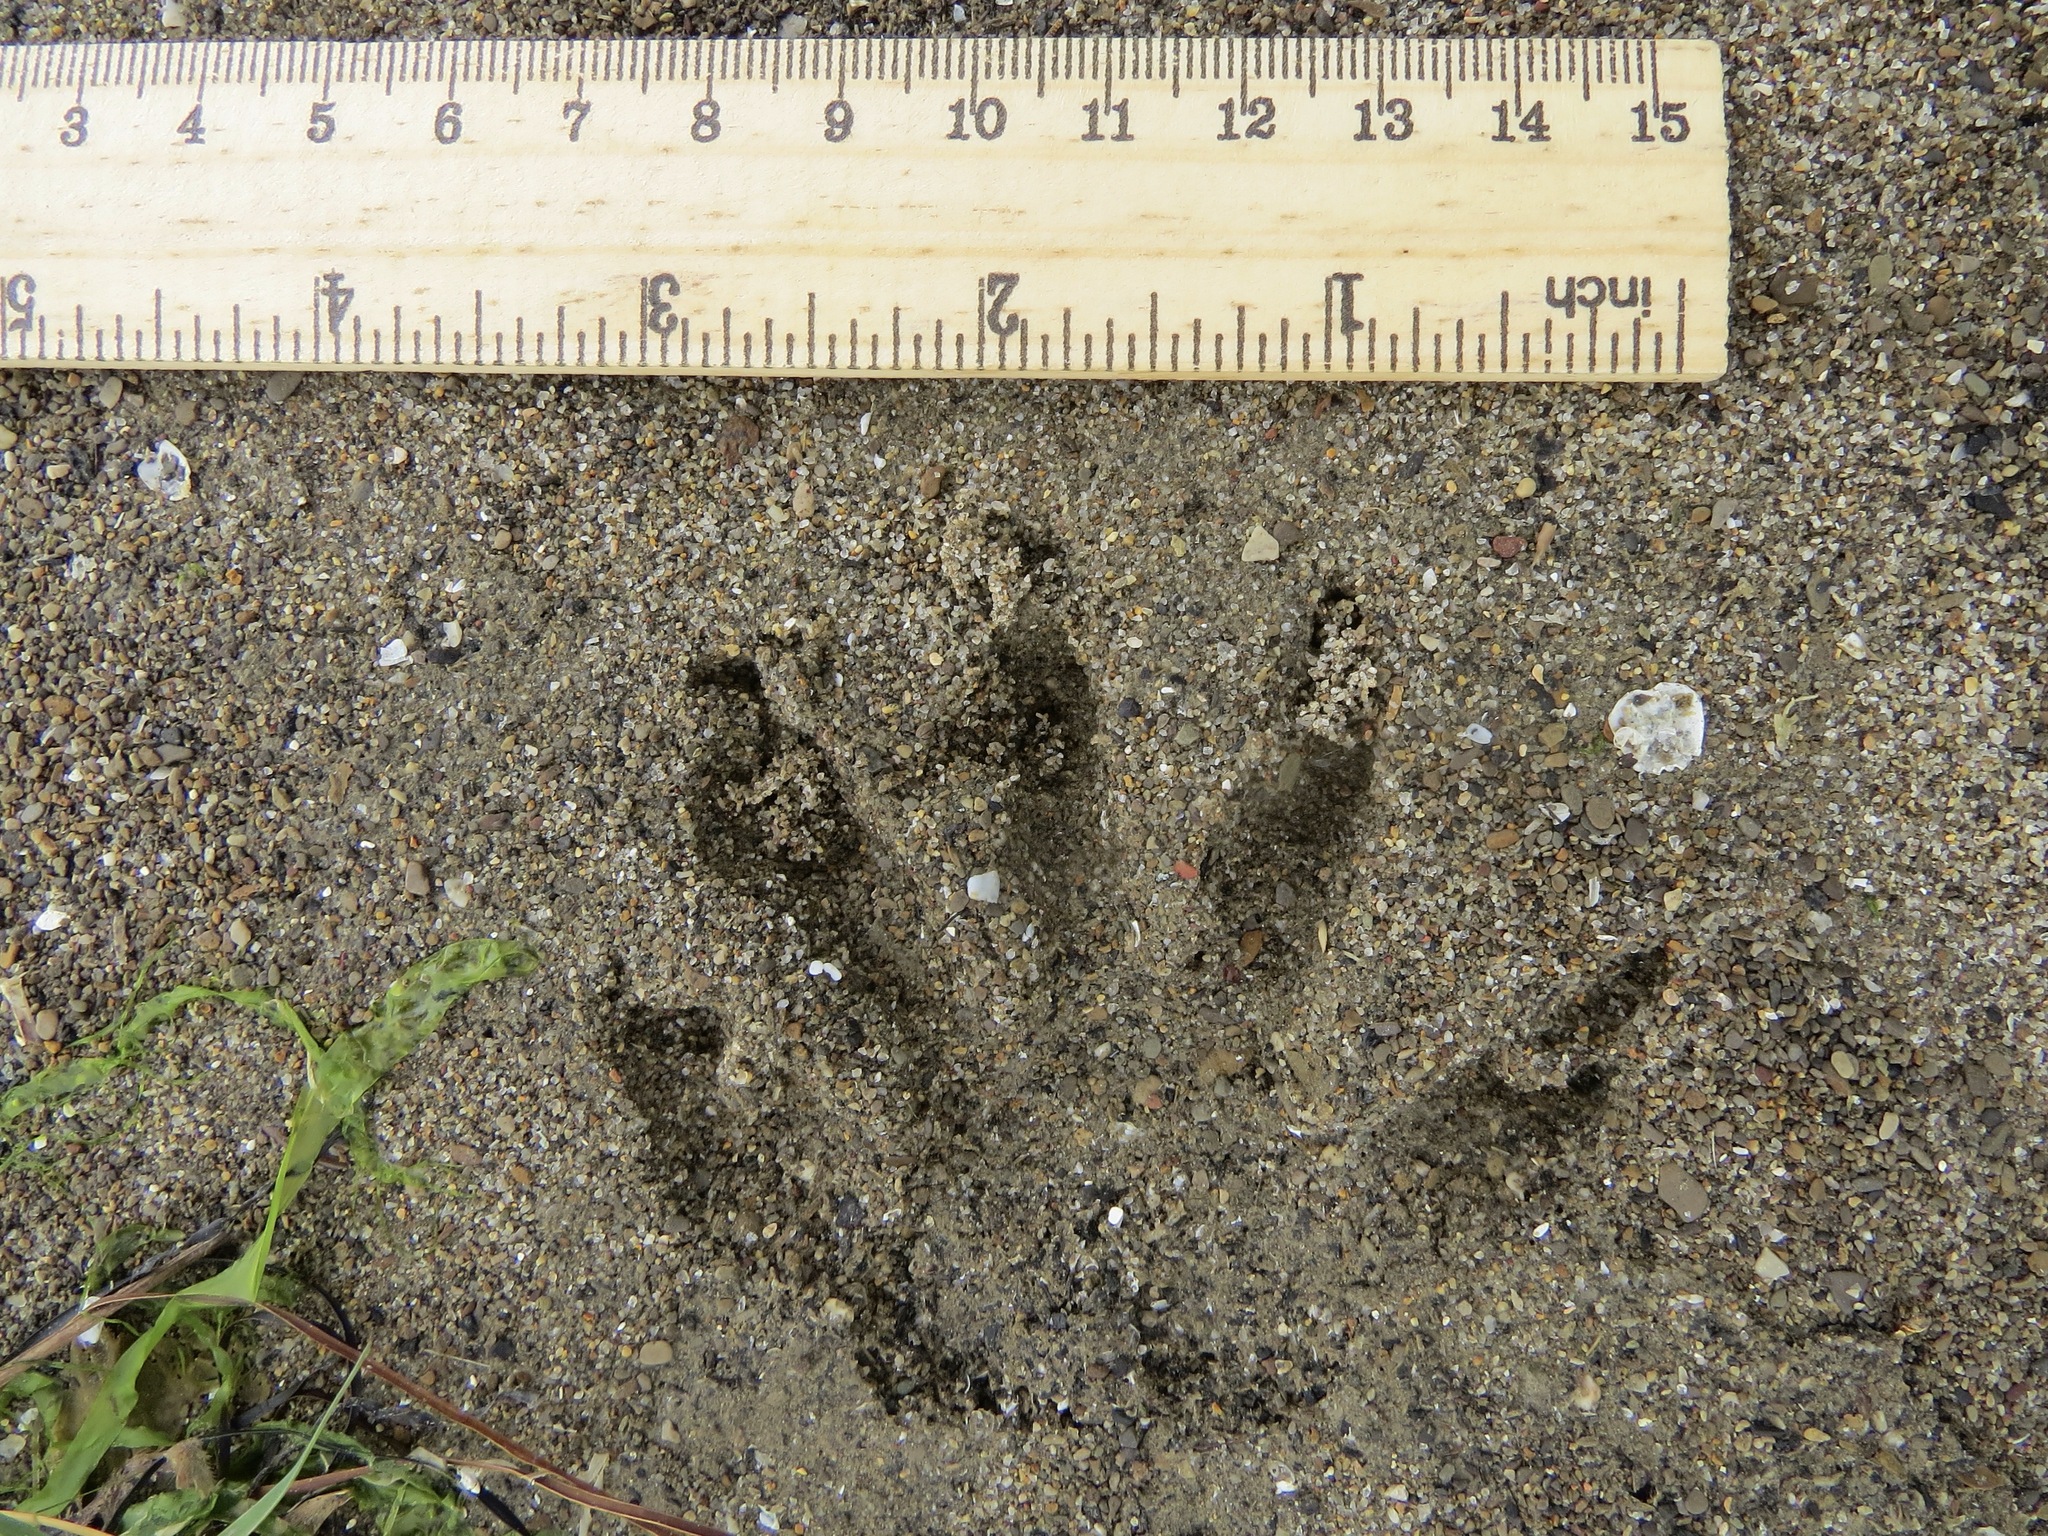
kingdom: Animalia
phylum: Chordata
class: Mammalia
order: Carnivora
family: Procyonidae
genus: Procyon
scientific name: Procyon lotor
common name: Raccoon
